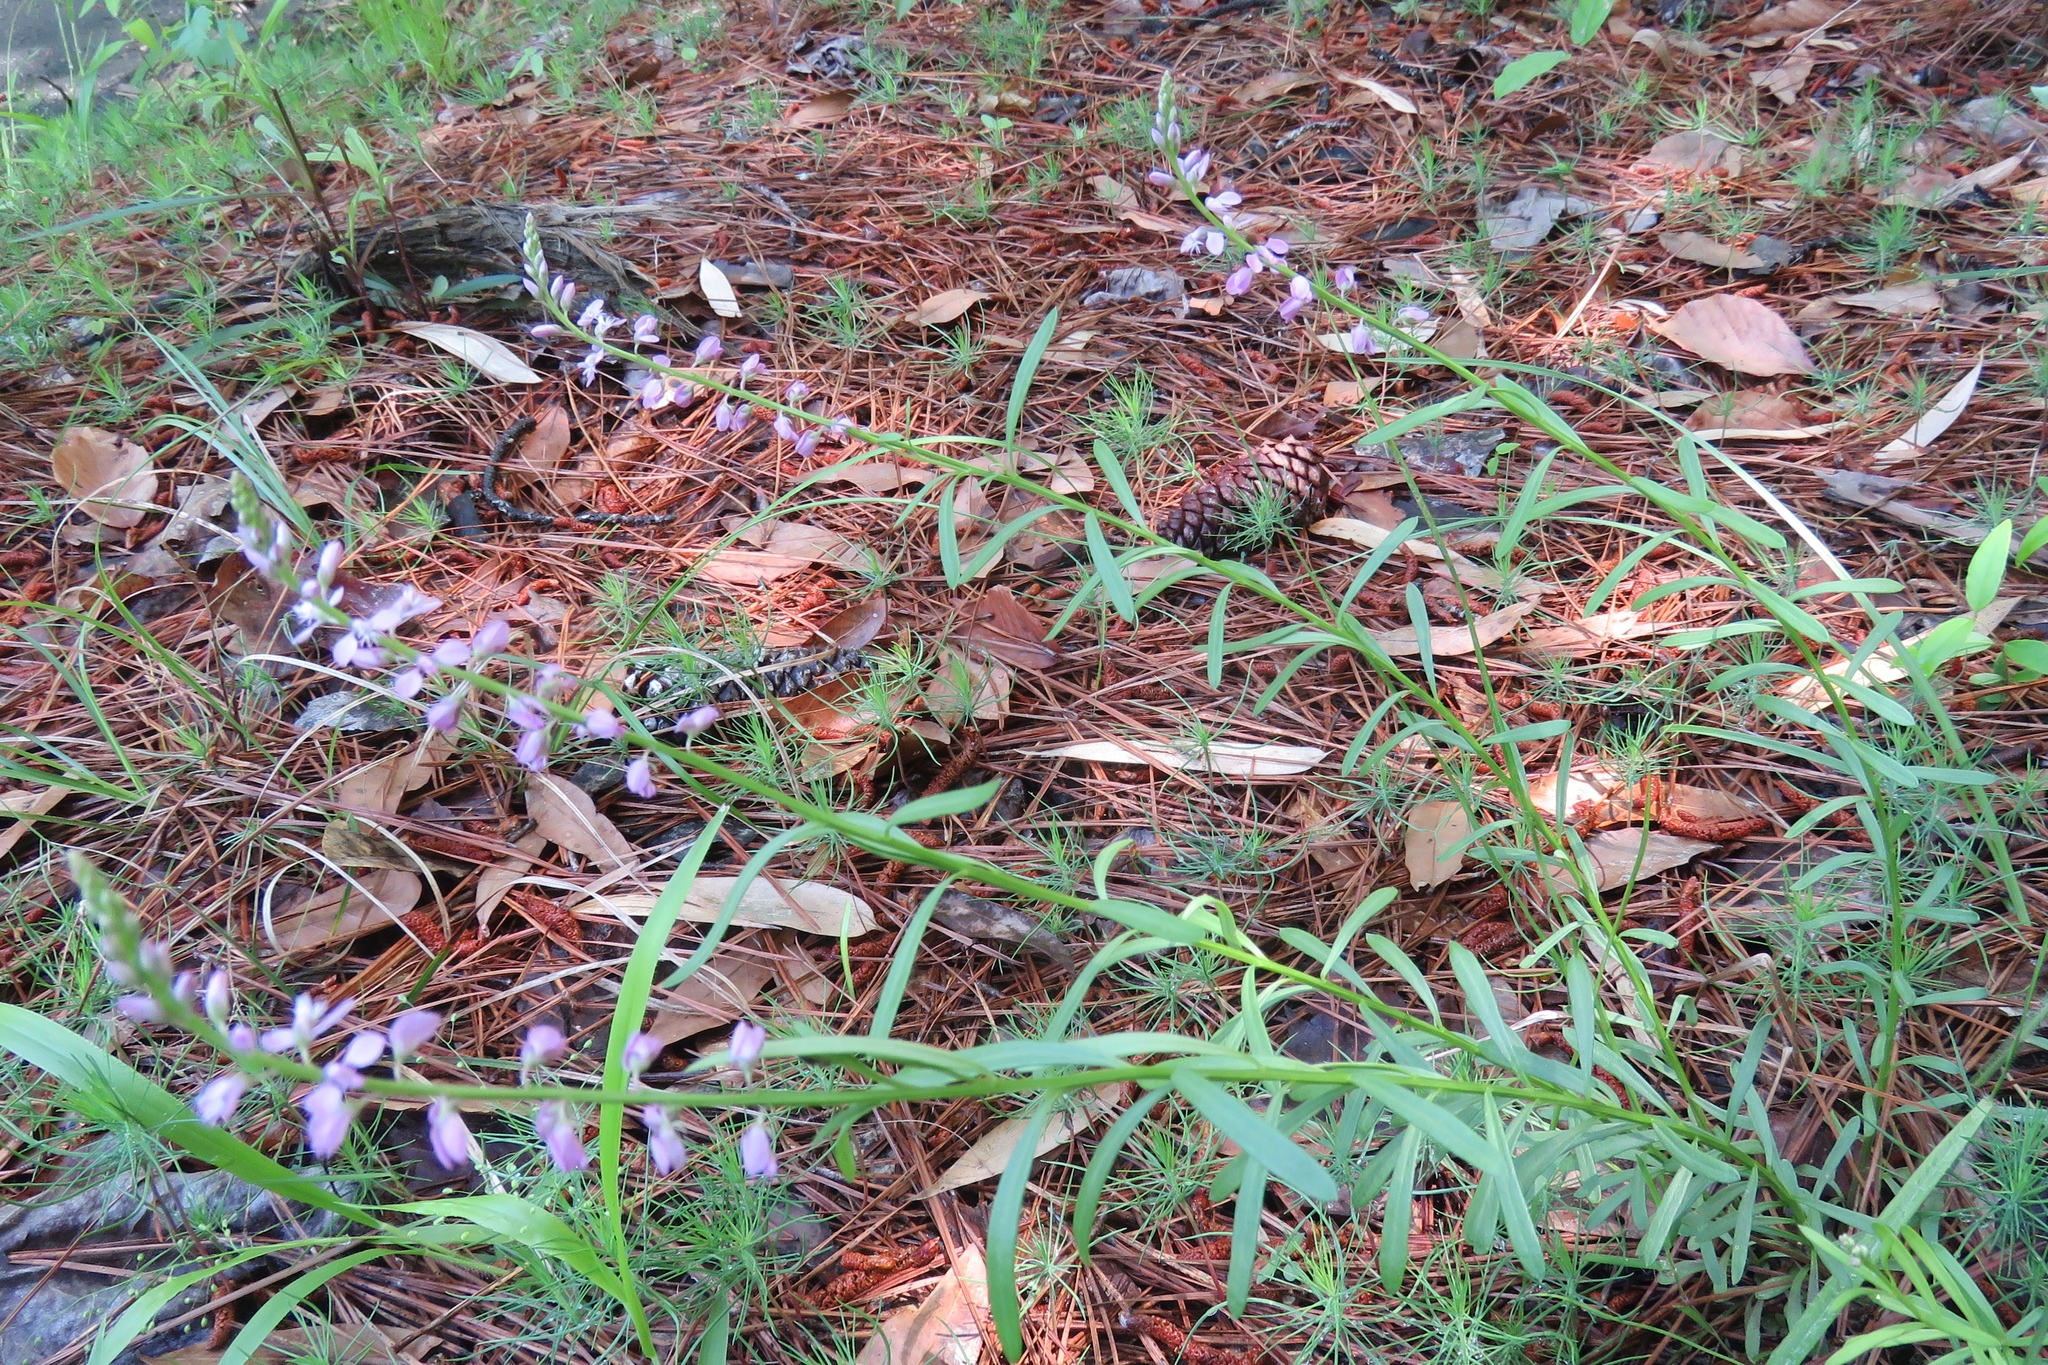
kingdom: Plantae
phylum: Tracheophyta
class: Magnoliopsida
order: Fabales
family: Polygalaceae
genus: Polygala
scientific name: Polygala polygama
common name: Bitter milkwort
